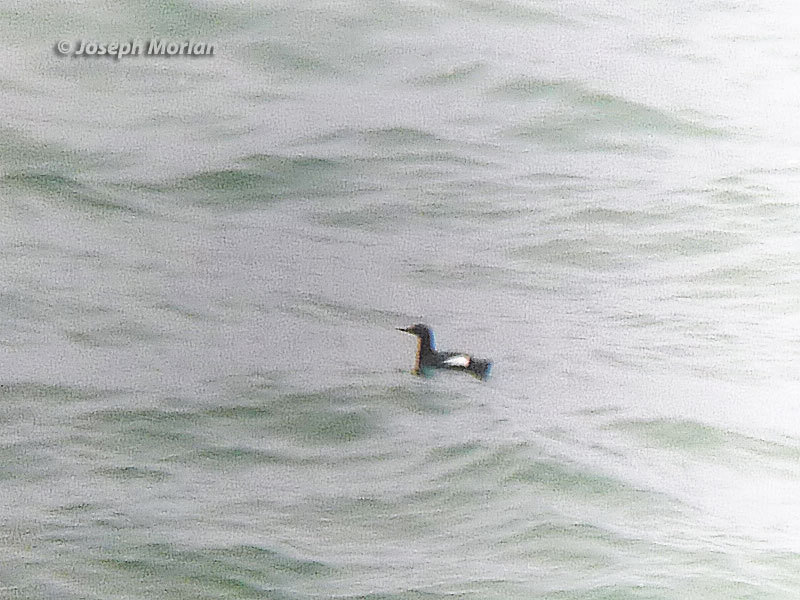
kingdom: Animalia
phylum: Chordata
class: Aves
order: Charadriiformes
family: Alcidae
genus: Cepphus
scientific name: Cepphus columba
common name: Pigeon guillemot
